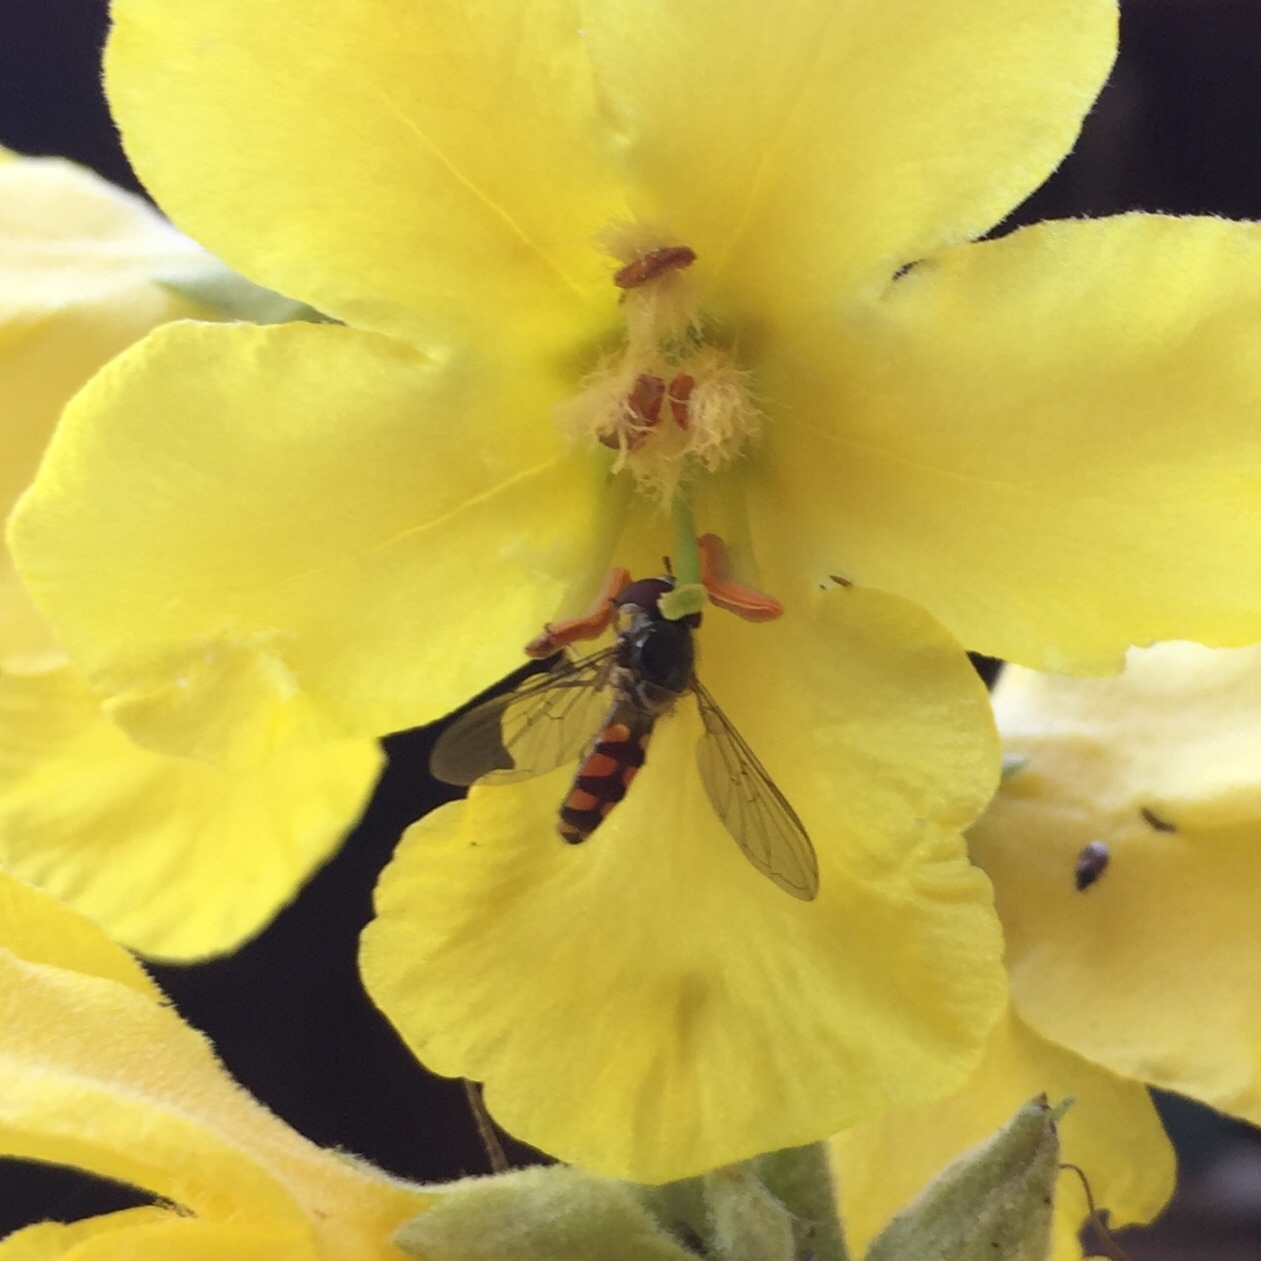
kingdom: Animalia
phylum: Arthropoda
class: Insecta
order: Diptera
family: Syrphidae
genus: Meliscaeva
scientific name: Meliscaeva auricollis
